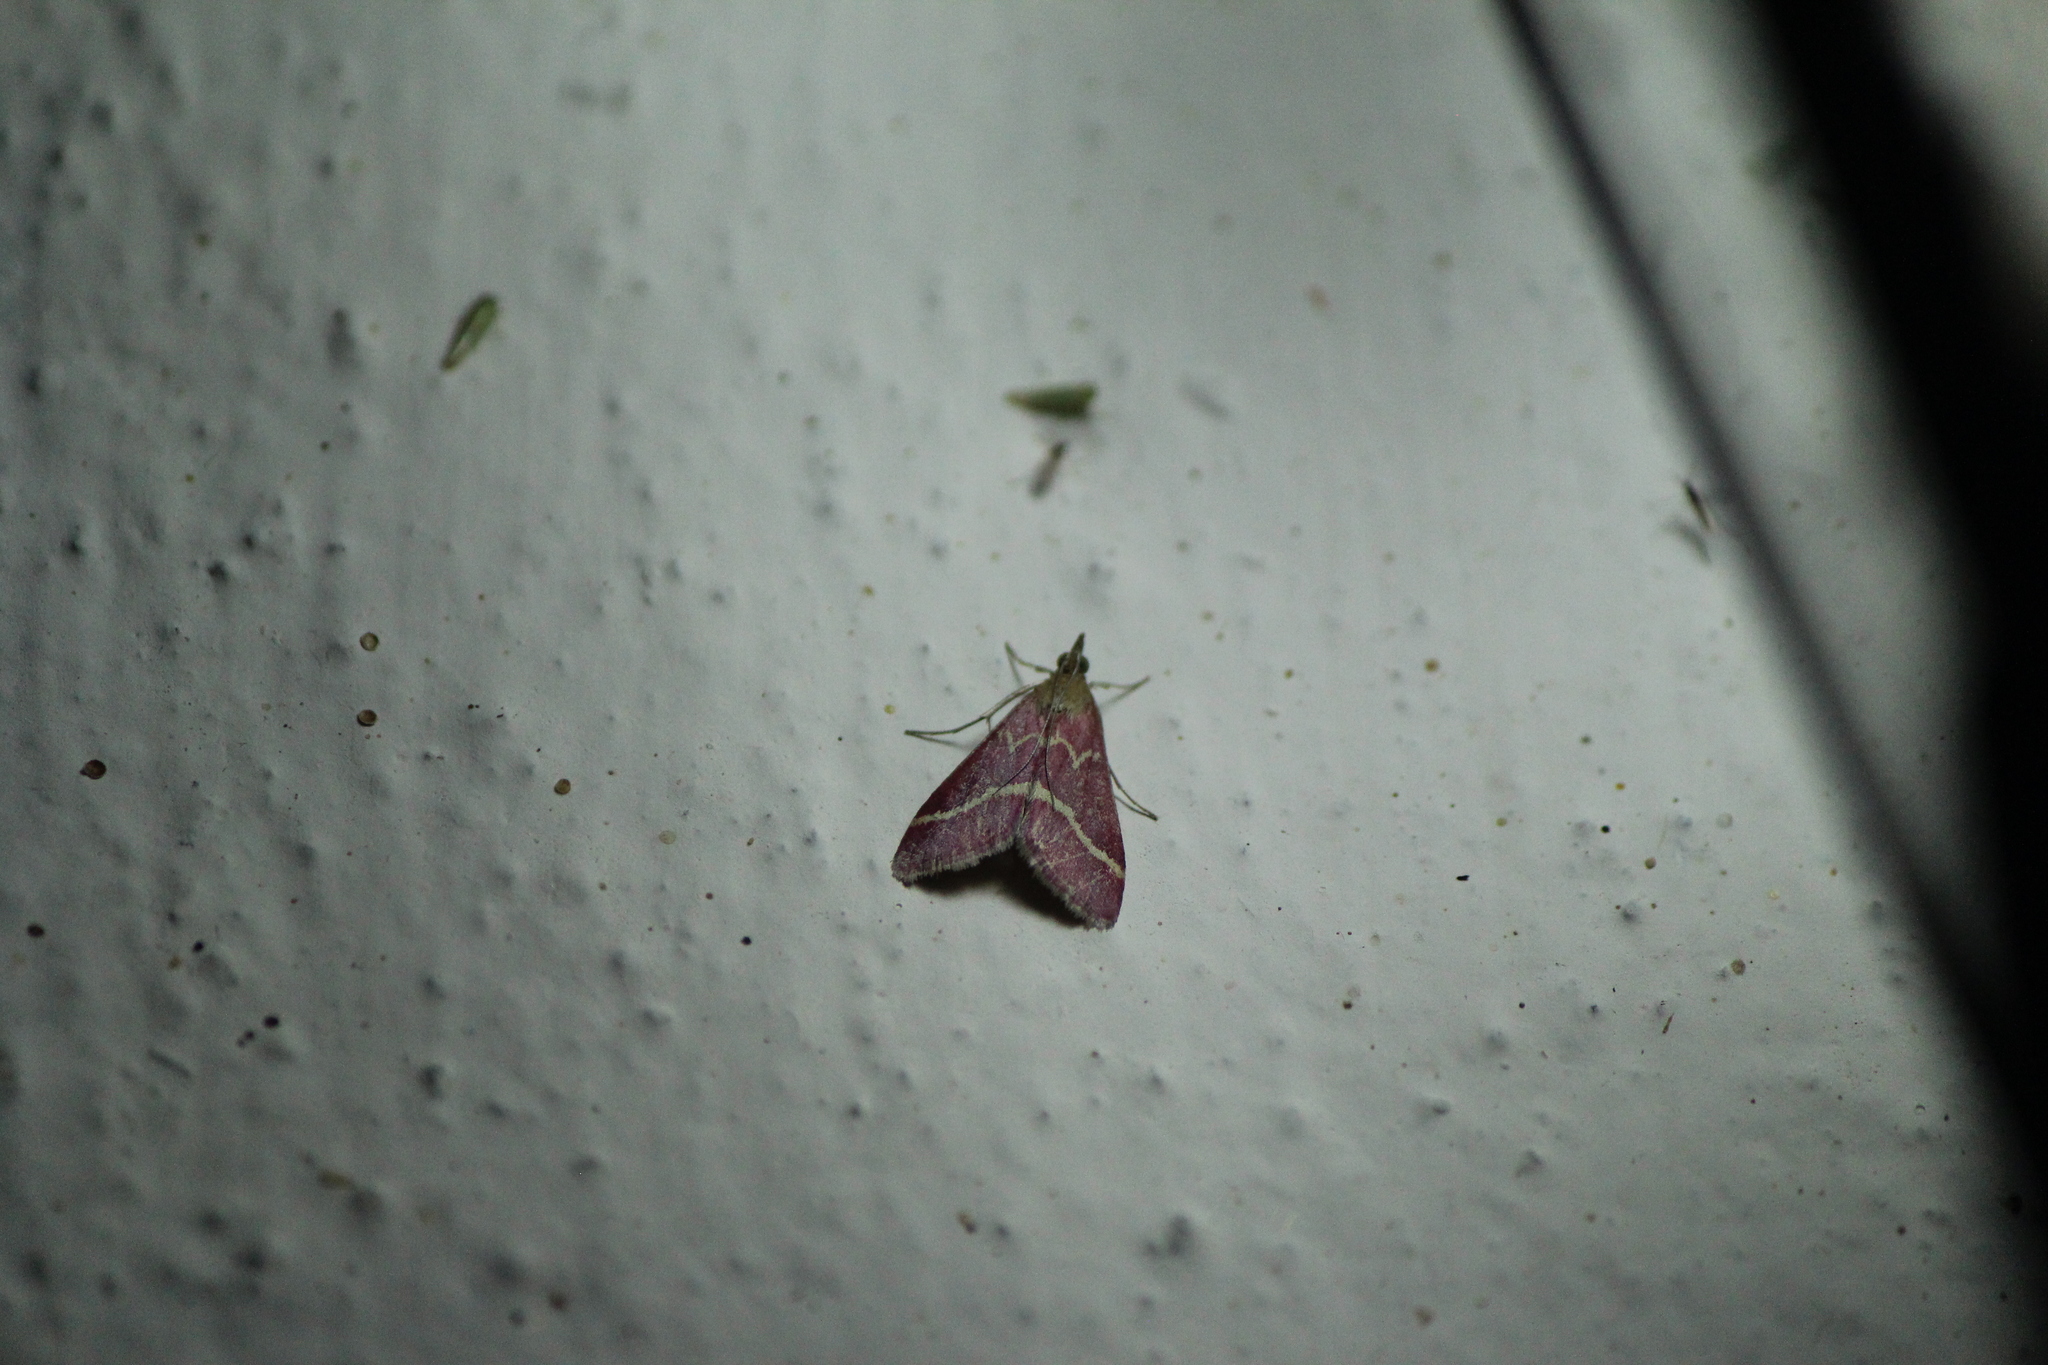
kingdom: Animalia
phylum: Arthropoda
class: Insecta
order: Lepidoptera
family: Crambidae
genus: Pyrausta
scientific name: Pyrausta volupialis
